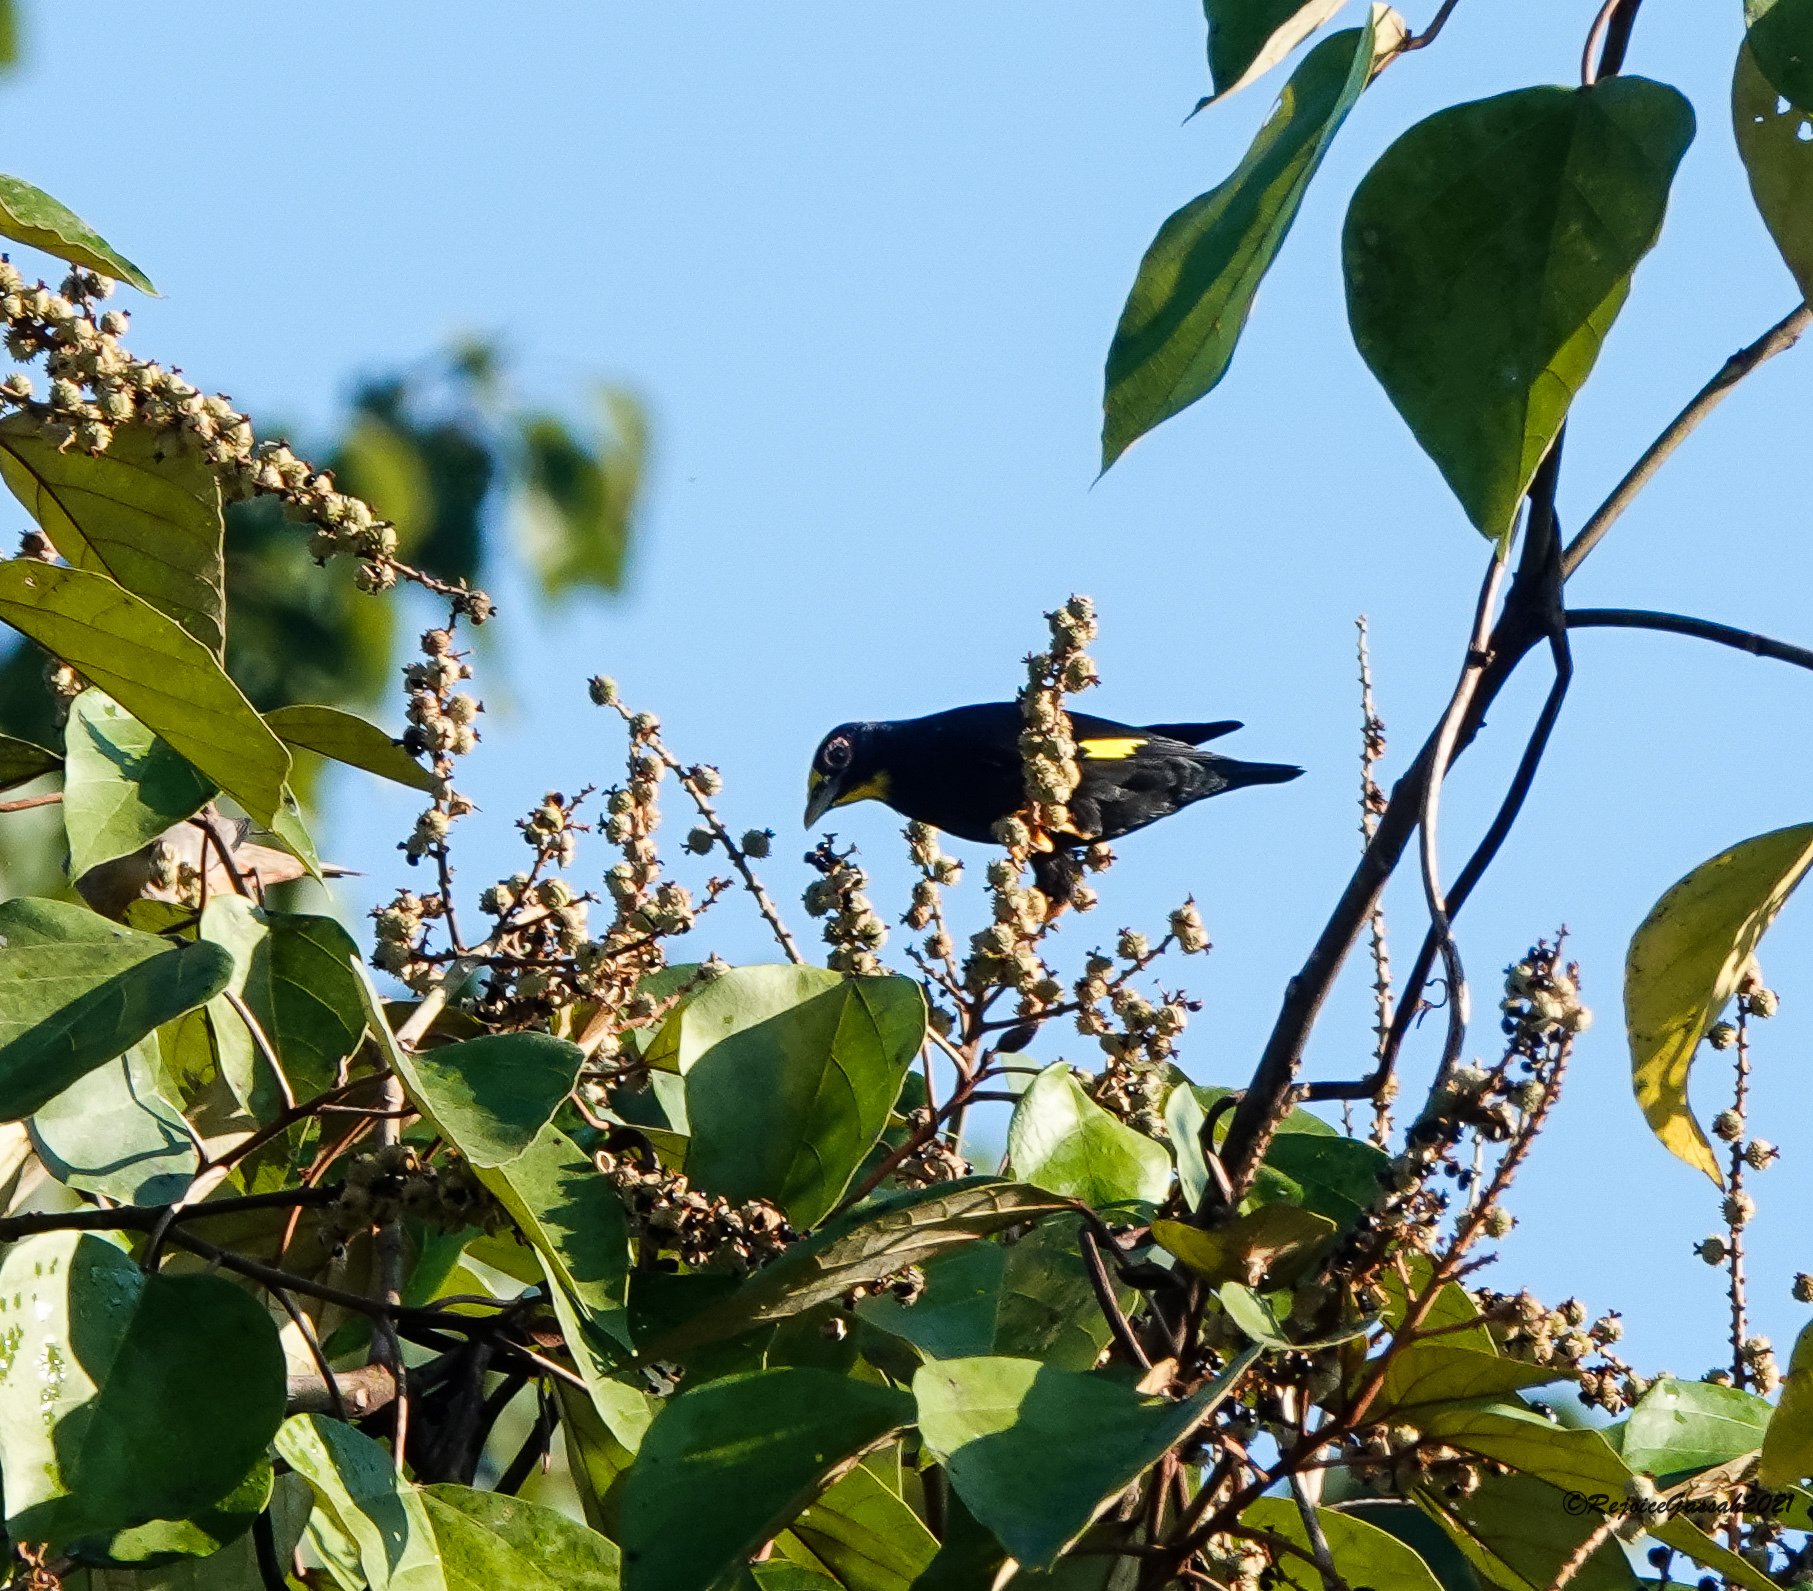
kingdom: Animalia
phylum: Chordata
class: Aves
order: Passeriformes
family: Sturnidae
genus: Ampeliceps
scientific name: Ampeliceps coronatus
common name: Golden-crested myna
